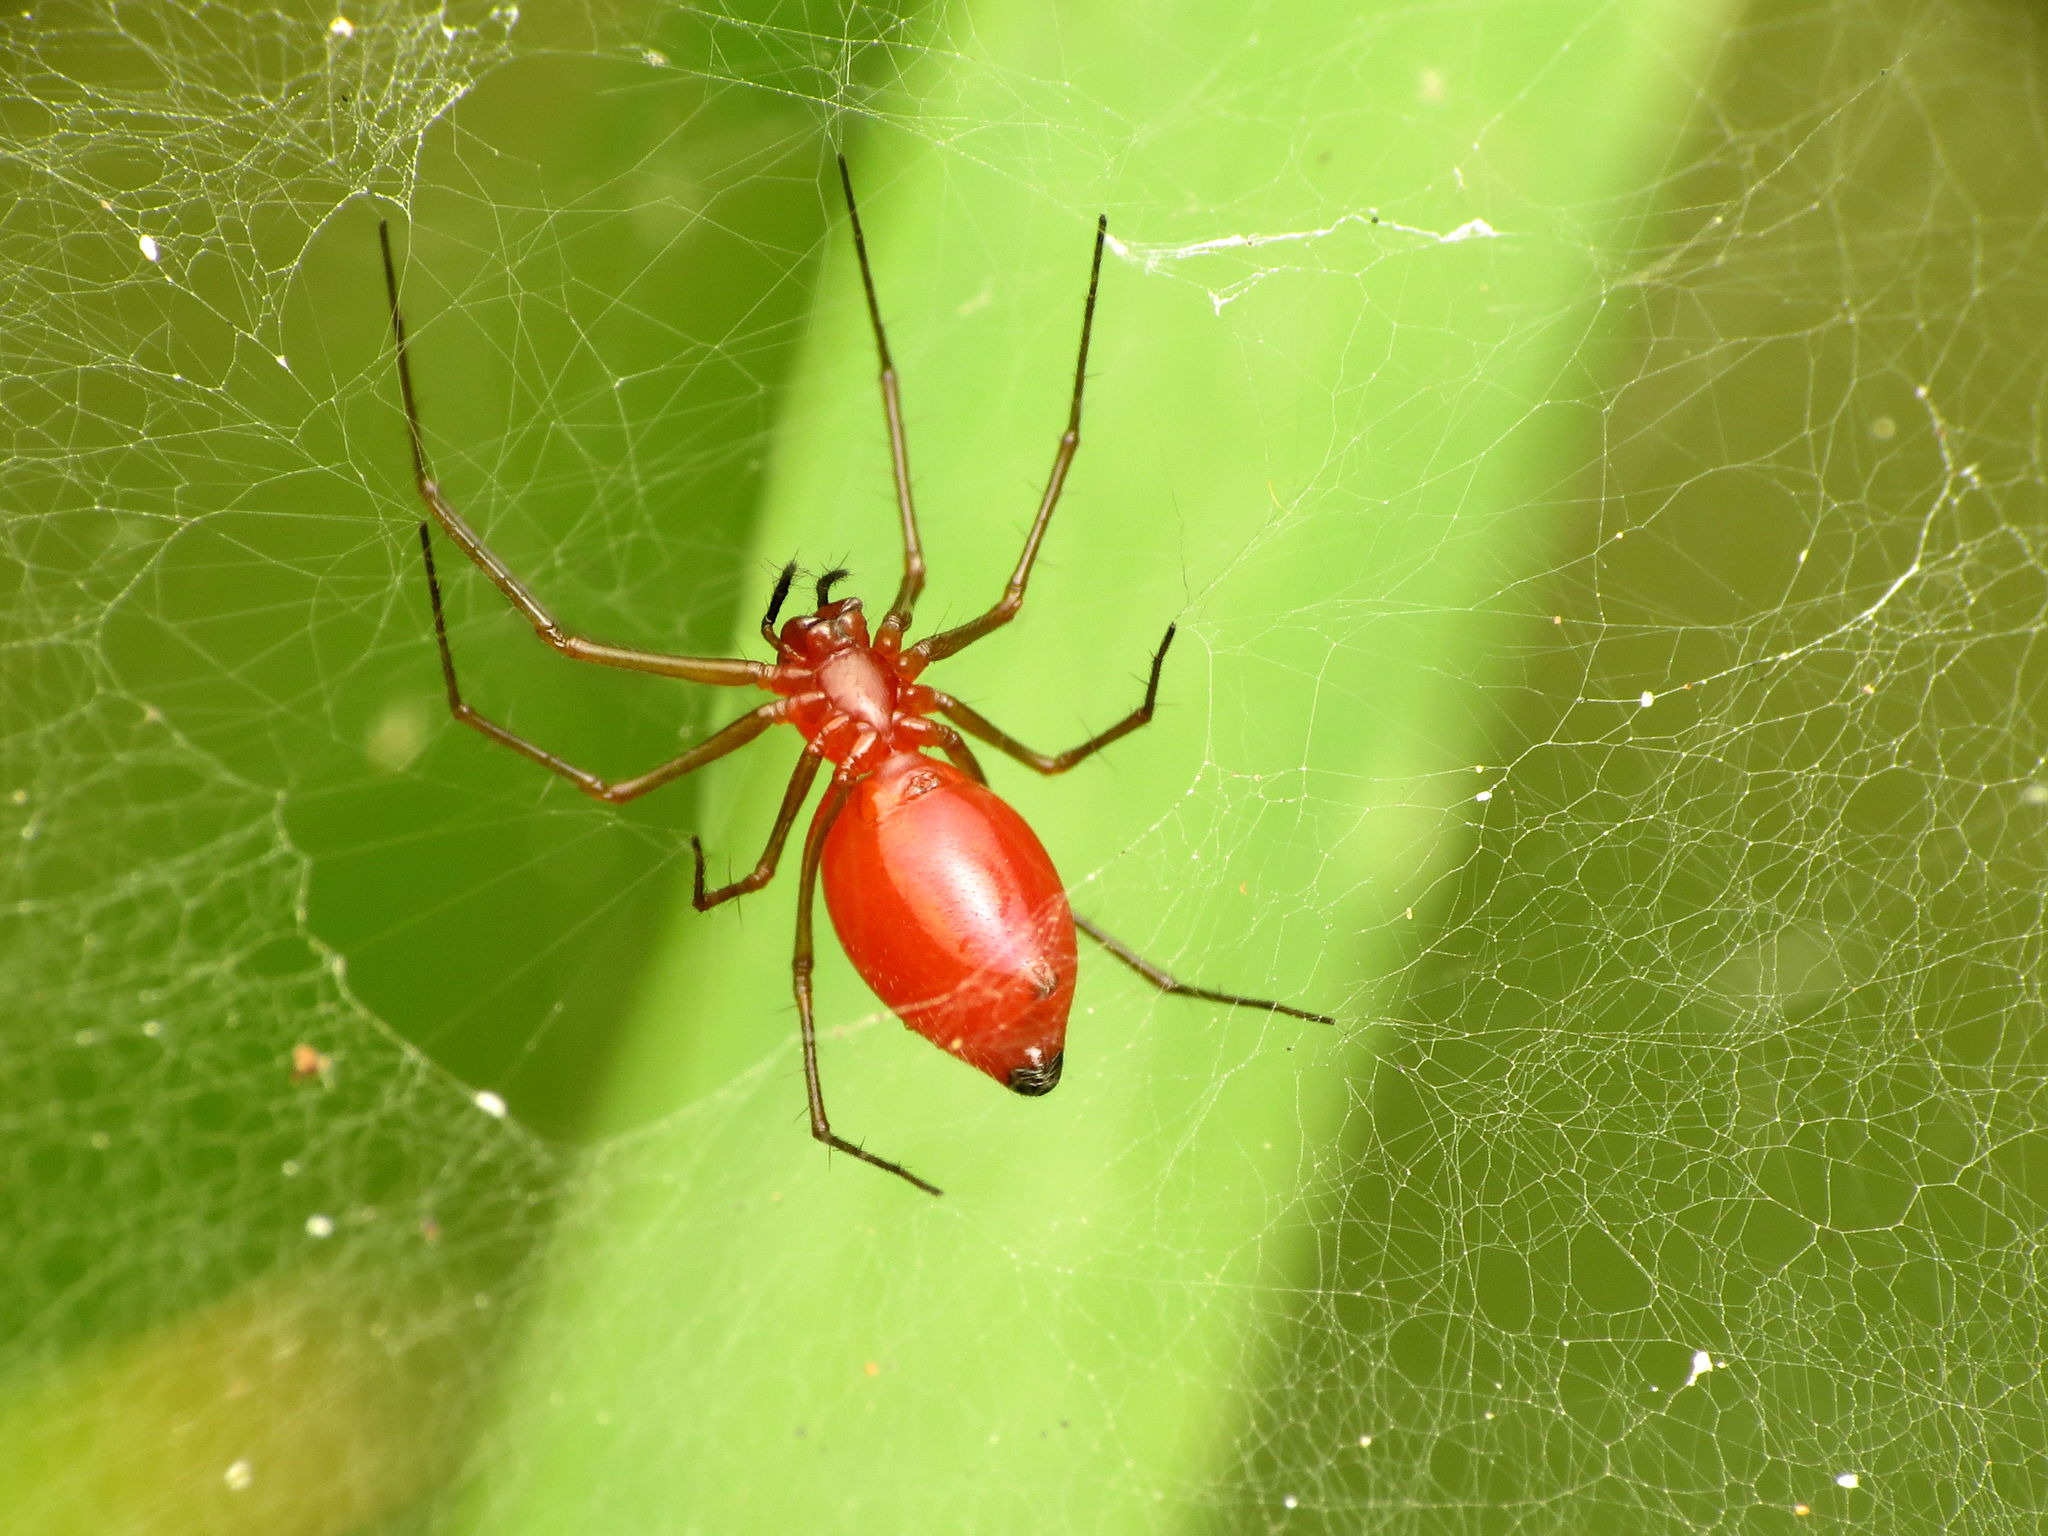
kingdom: Animalia
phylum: Arthropoda
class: Arachnida
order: Araneae
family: Linyphiidae
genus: Florinda
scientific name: Florinda coccinea
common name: Black-tailed red sheetweaver
